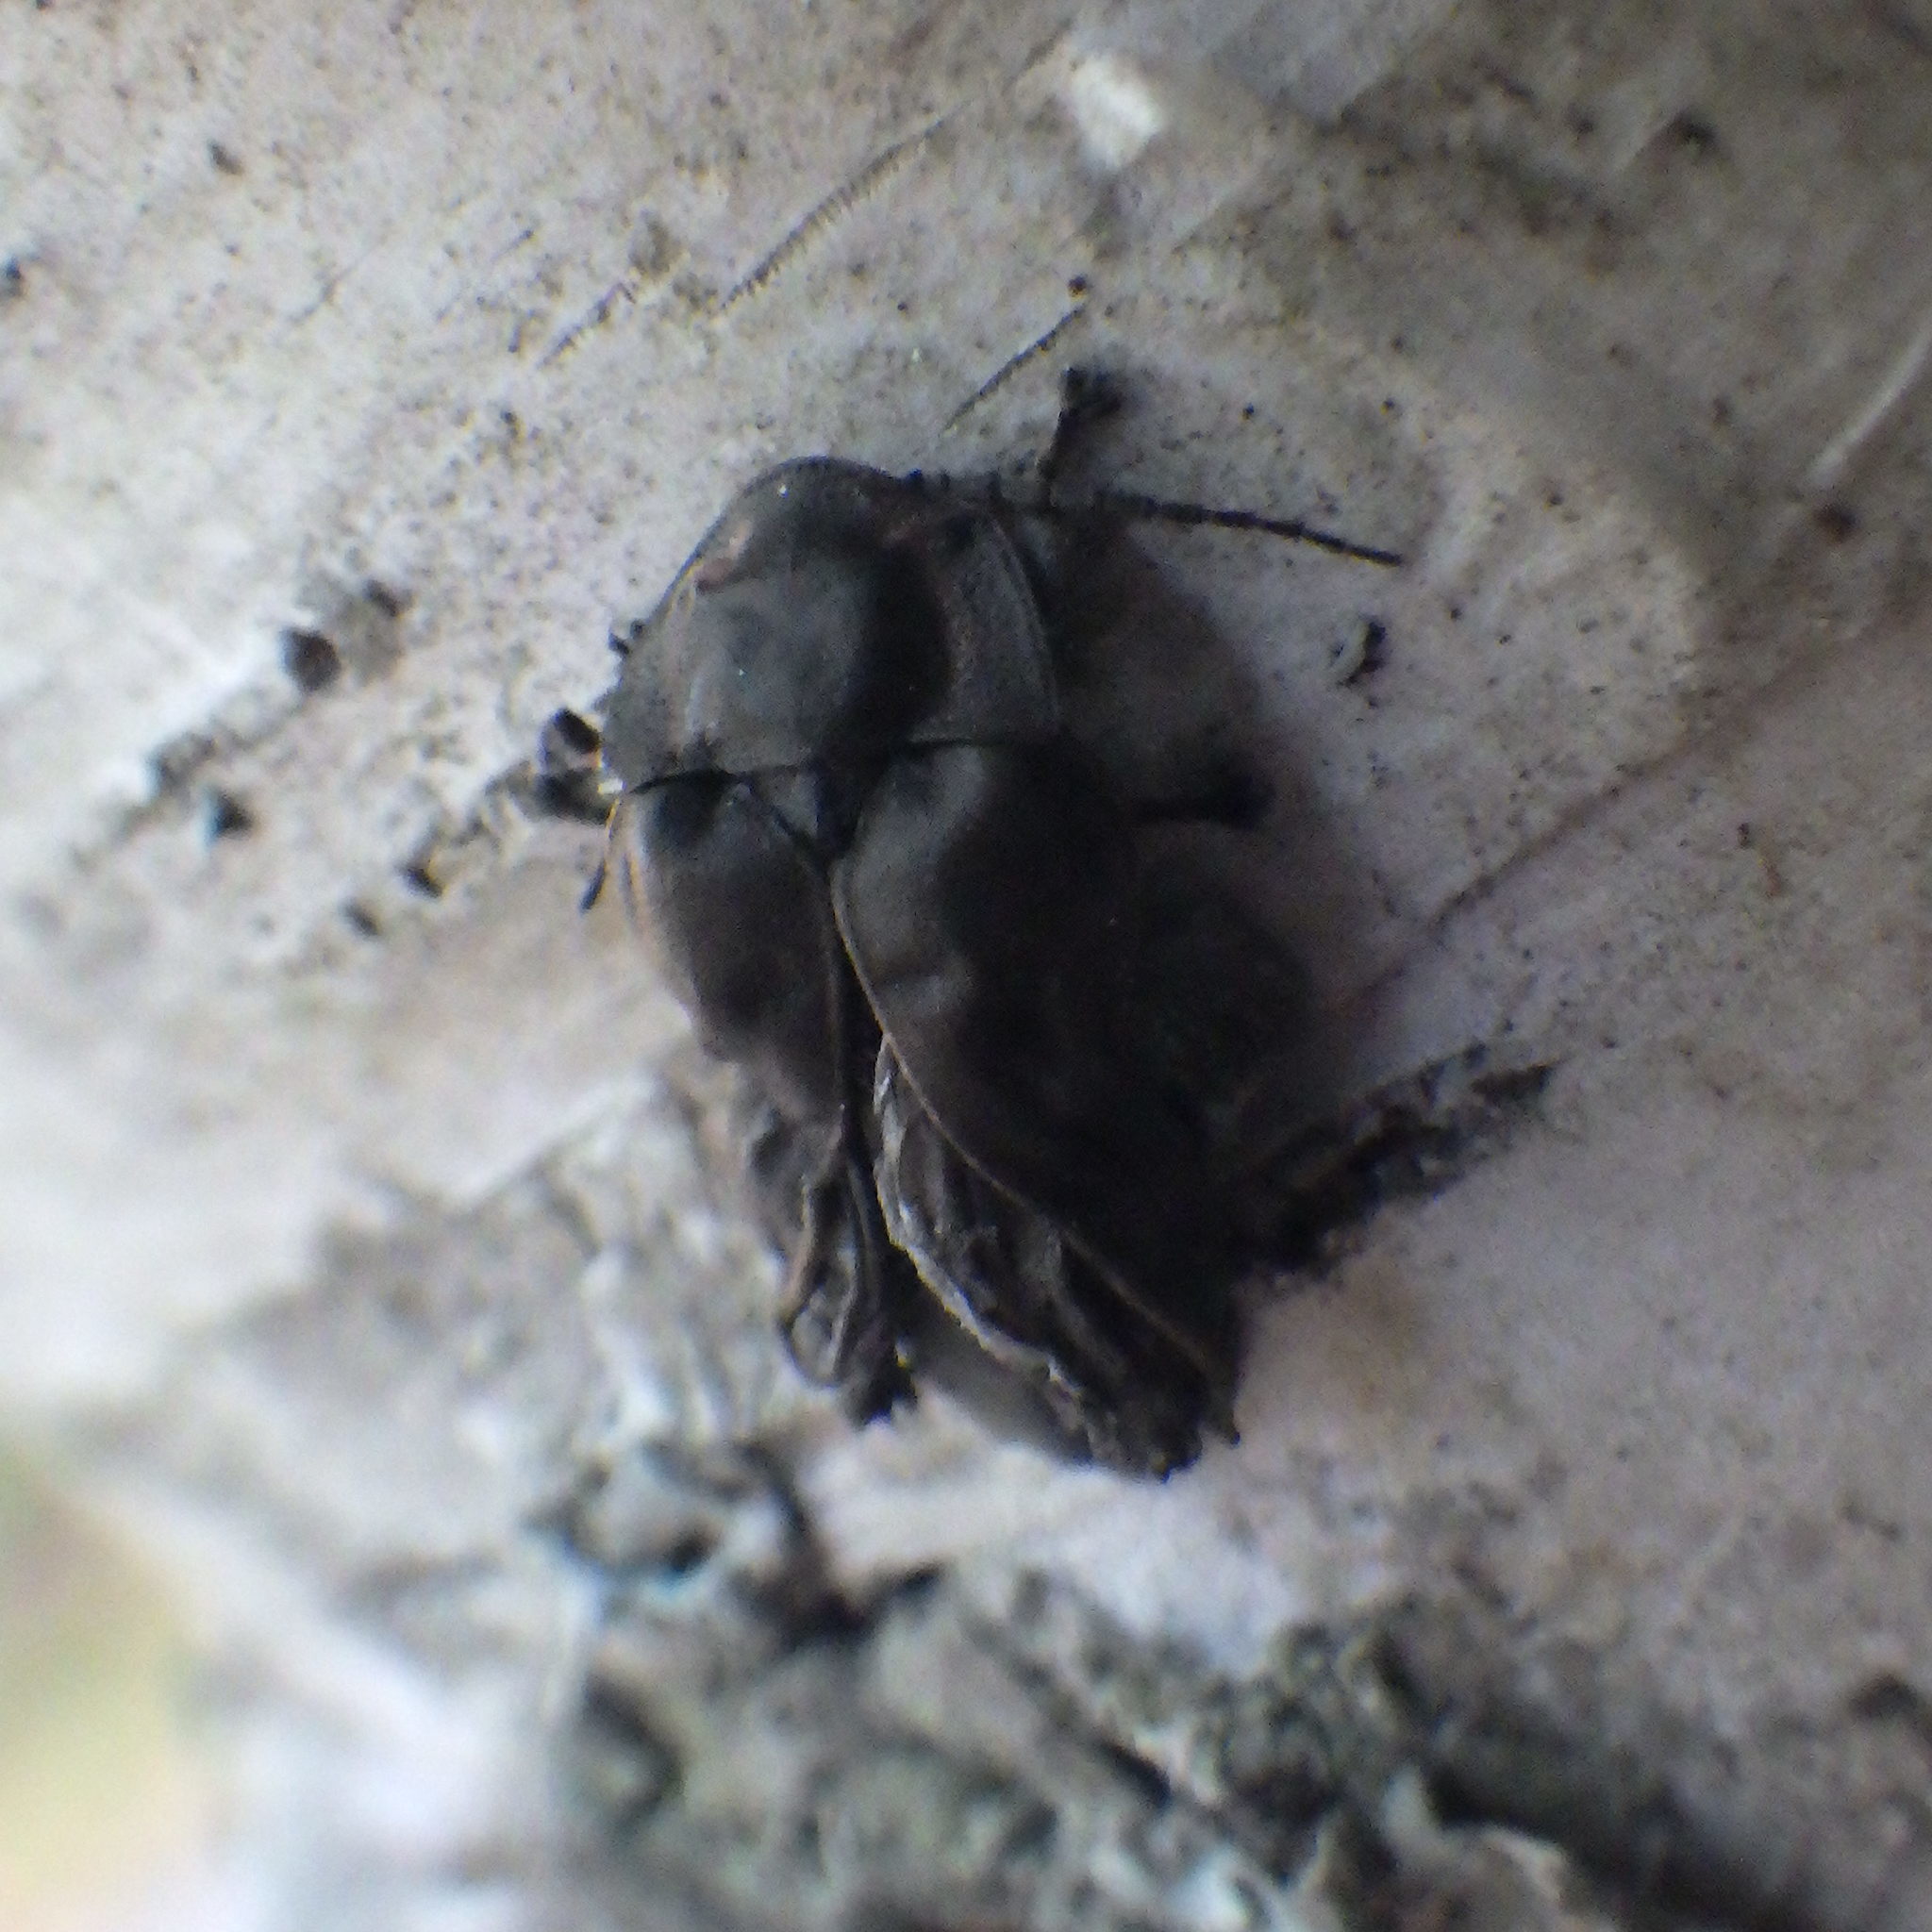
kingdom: Animalia
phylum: Arthropoda
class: Insecta
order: Coleoptera
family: Lampyridae
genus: Photinus
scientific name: Photinus corrusca
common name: Winter firefly
